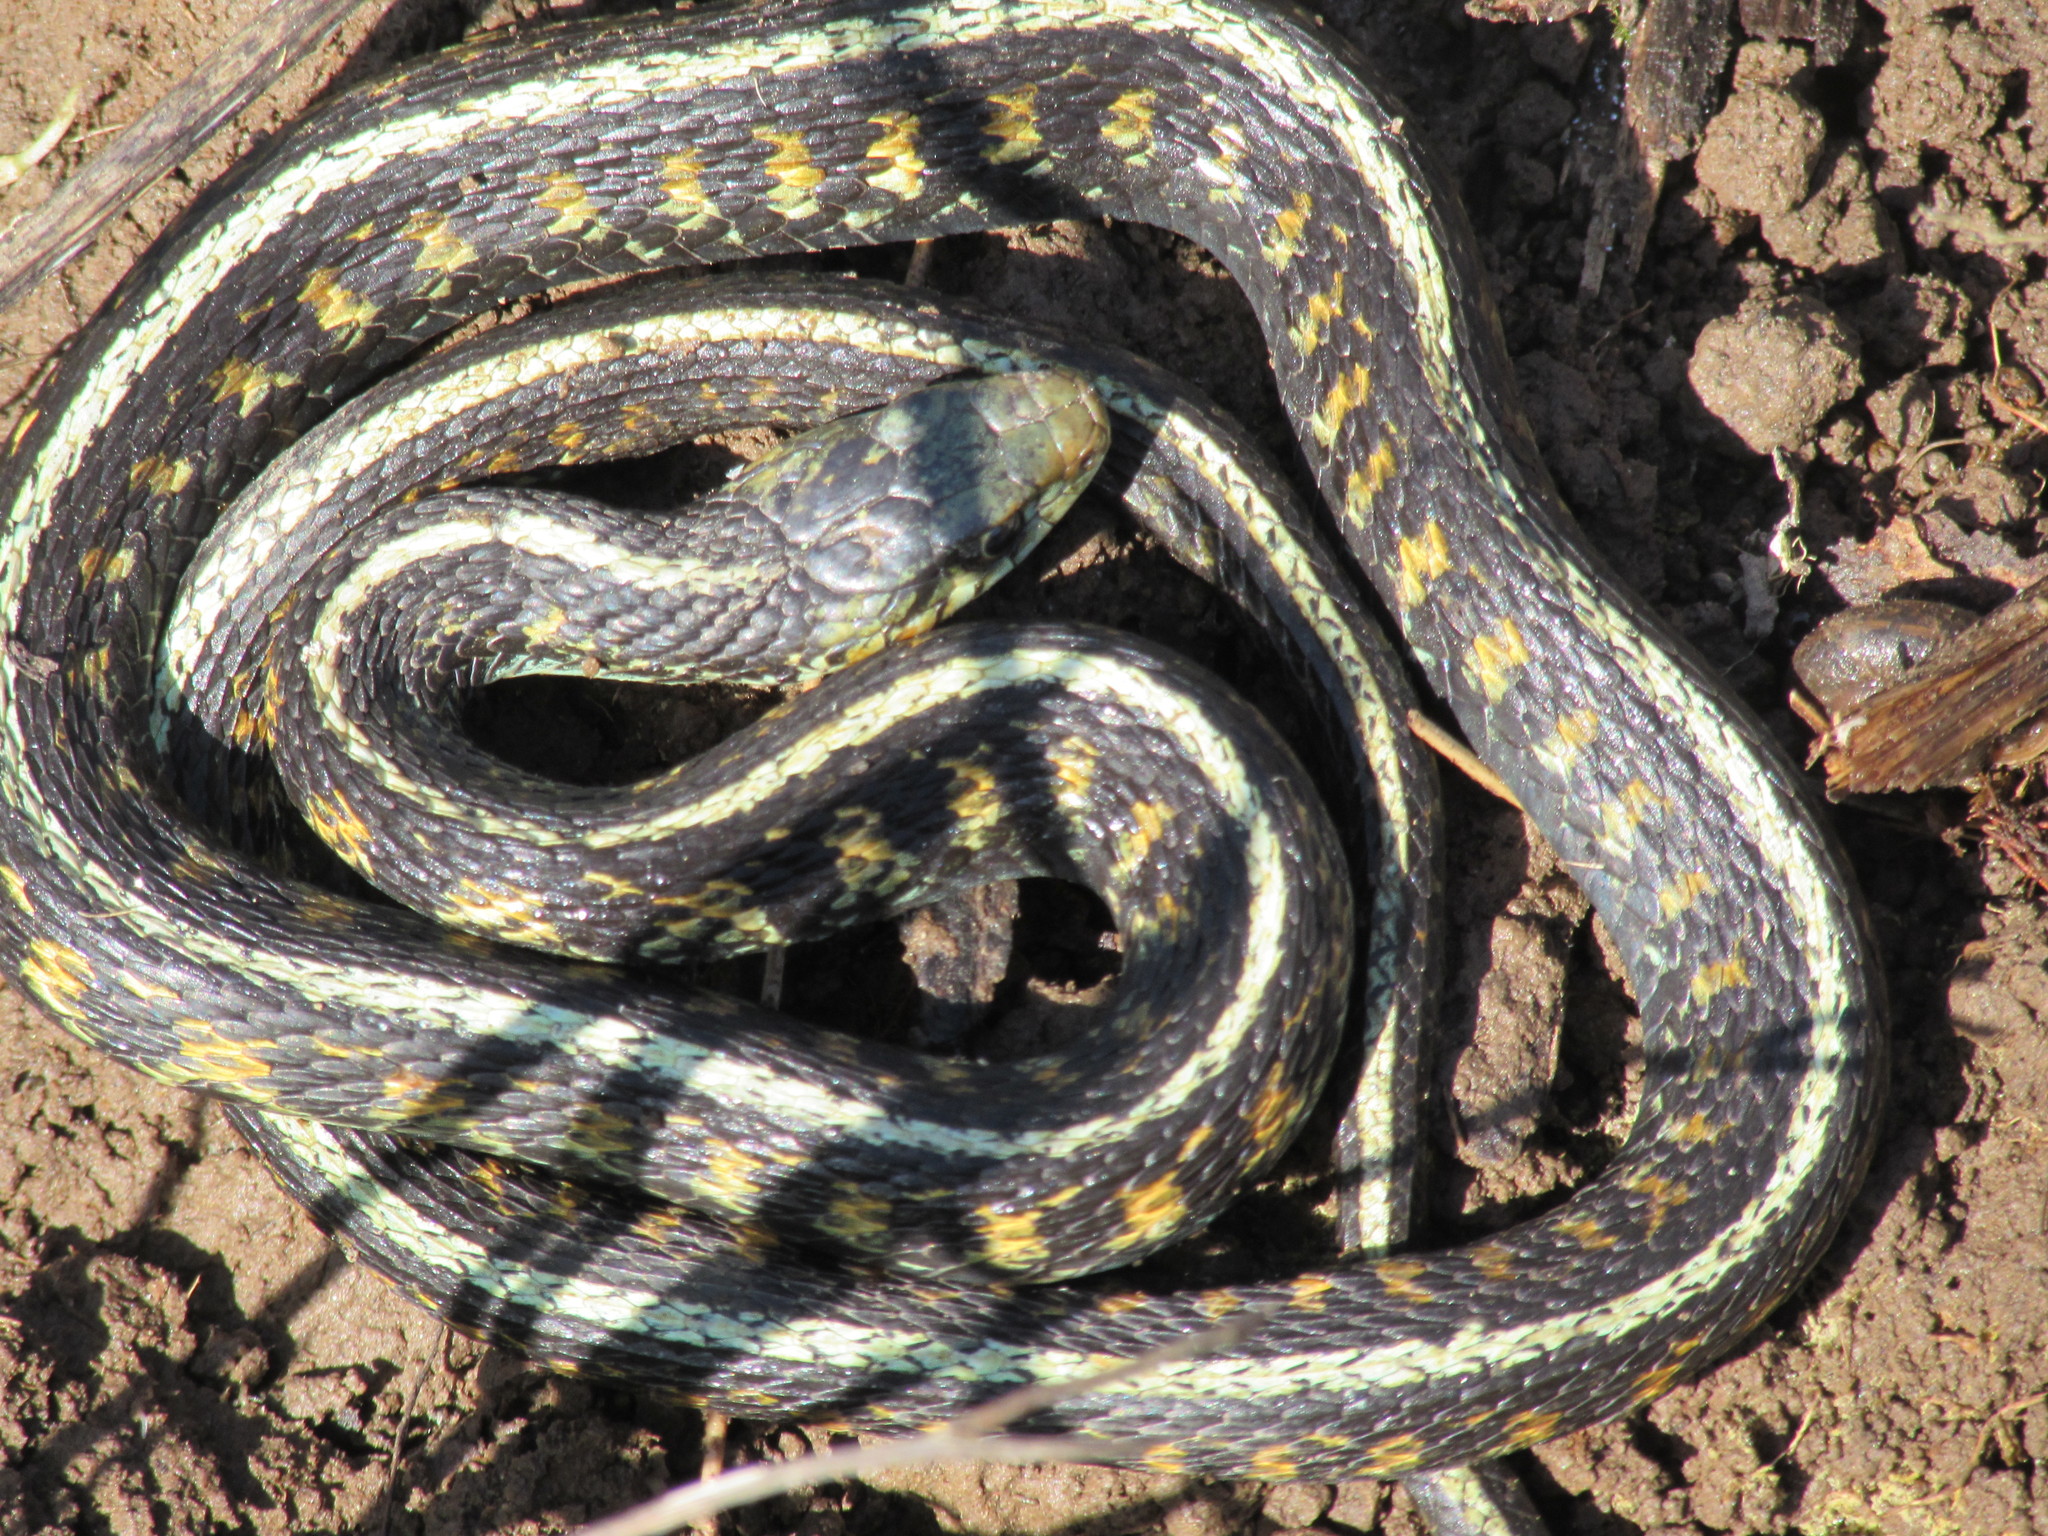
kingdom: Animalia
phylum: Chordata
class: Squamata
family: Colubridae
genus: Thamnophis
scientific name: Thamnophis sirtalis
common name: Common garter snake
